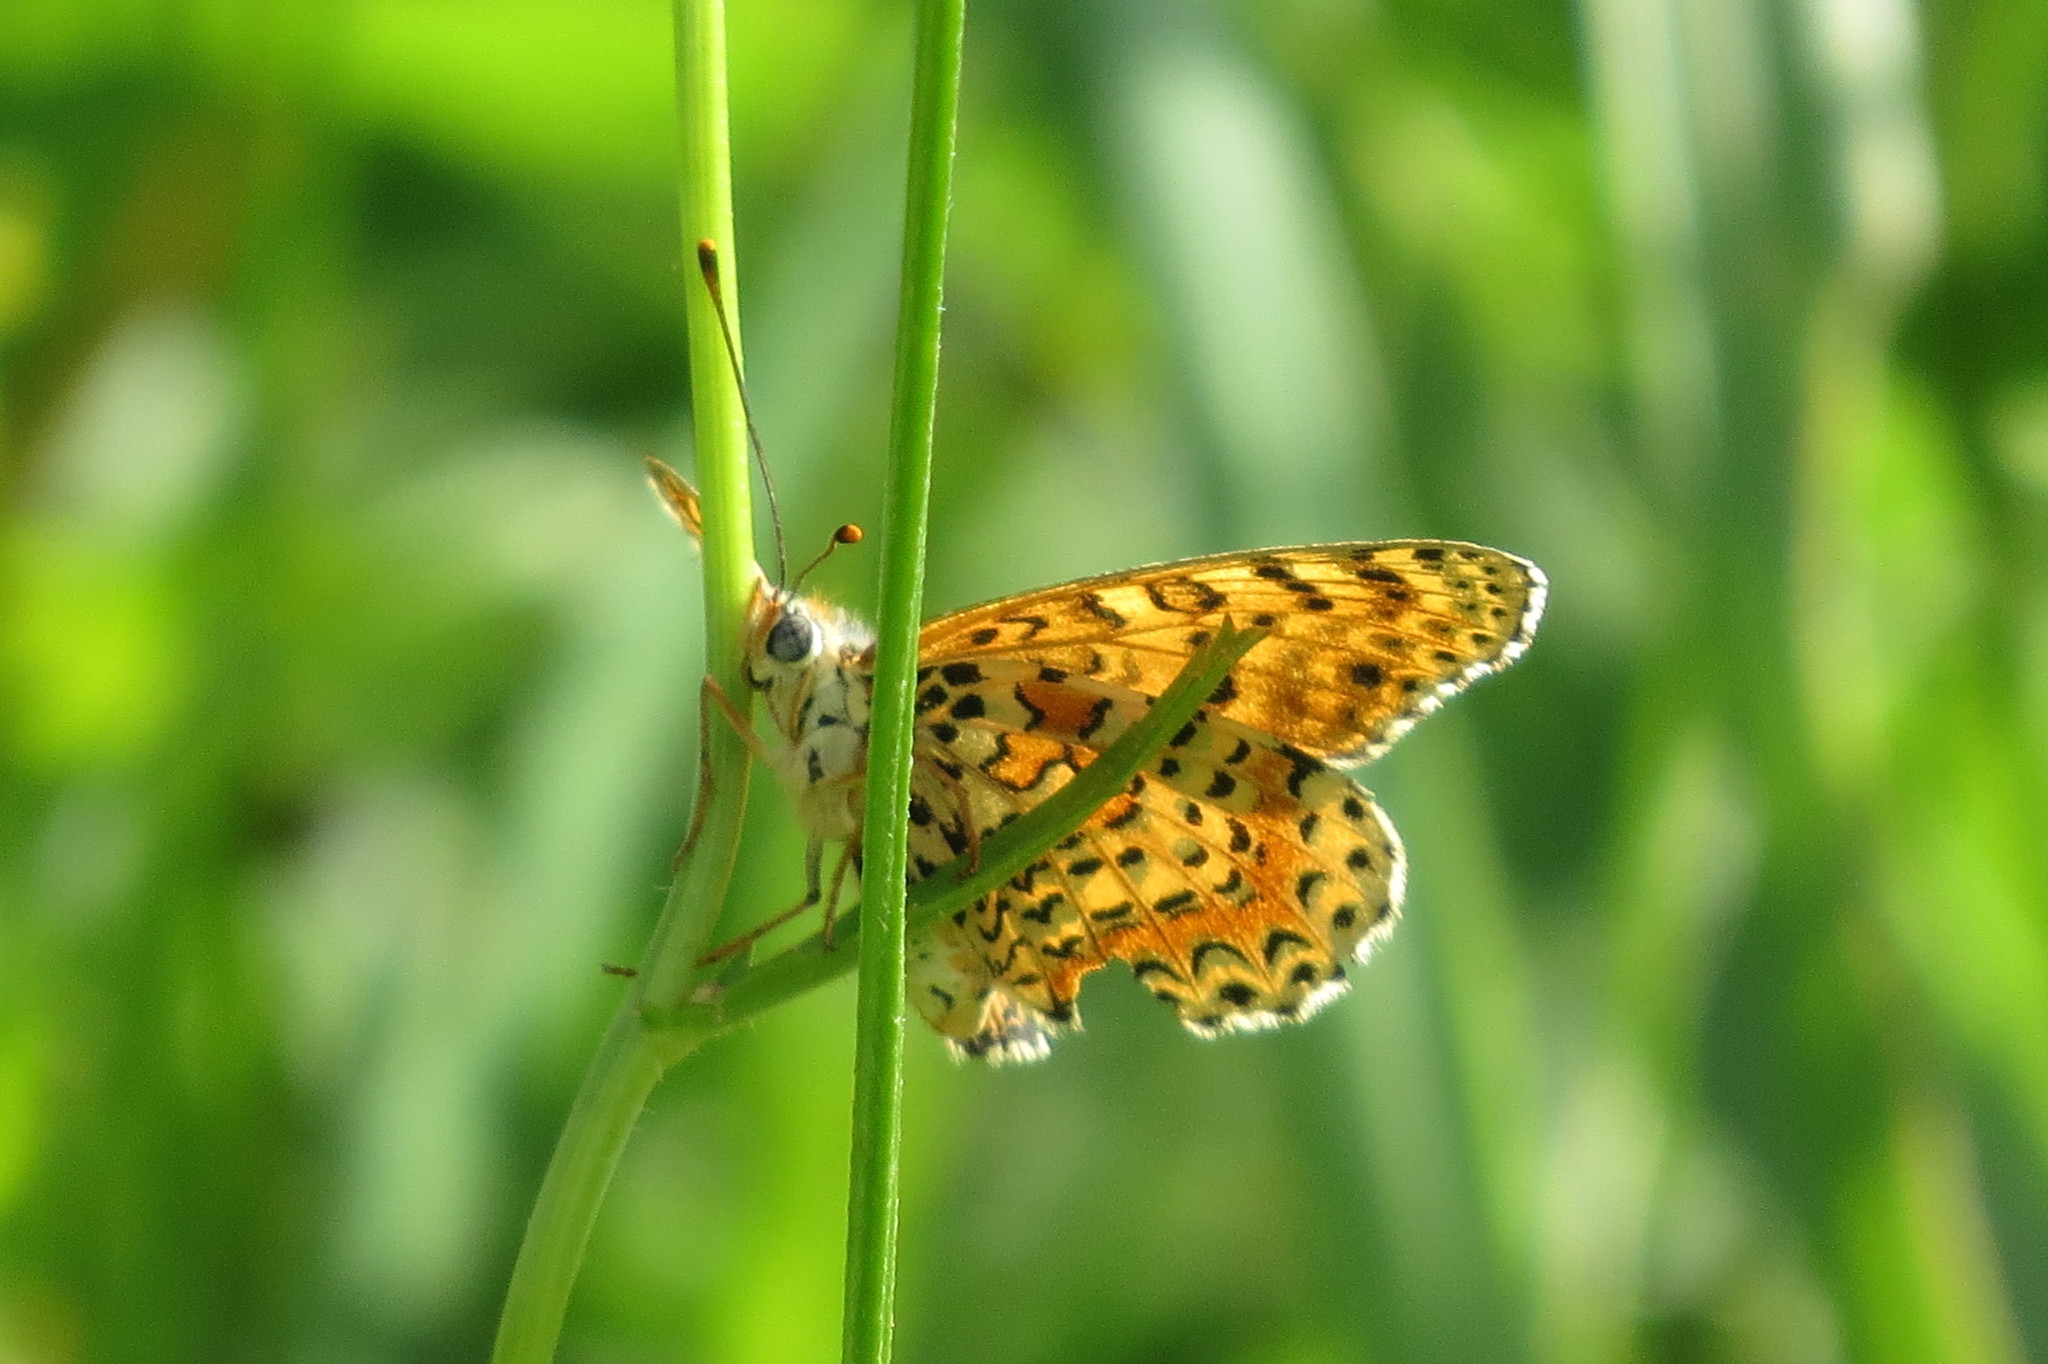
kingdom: Animalia
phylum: Arthropoda
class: Insecta
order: Lepidoptera
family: Nymphalidae
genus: Melitaea
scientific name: Melitaea didyma
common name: Spotted fritillary
